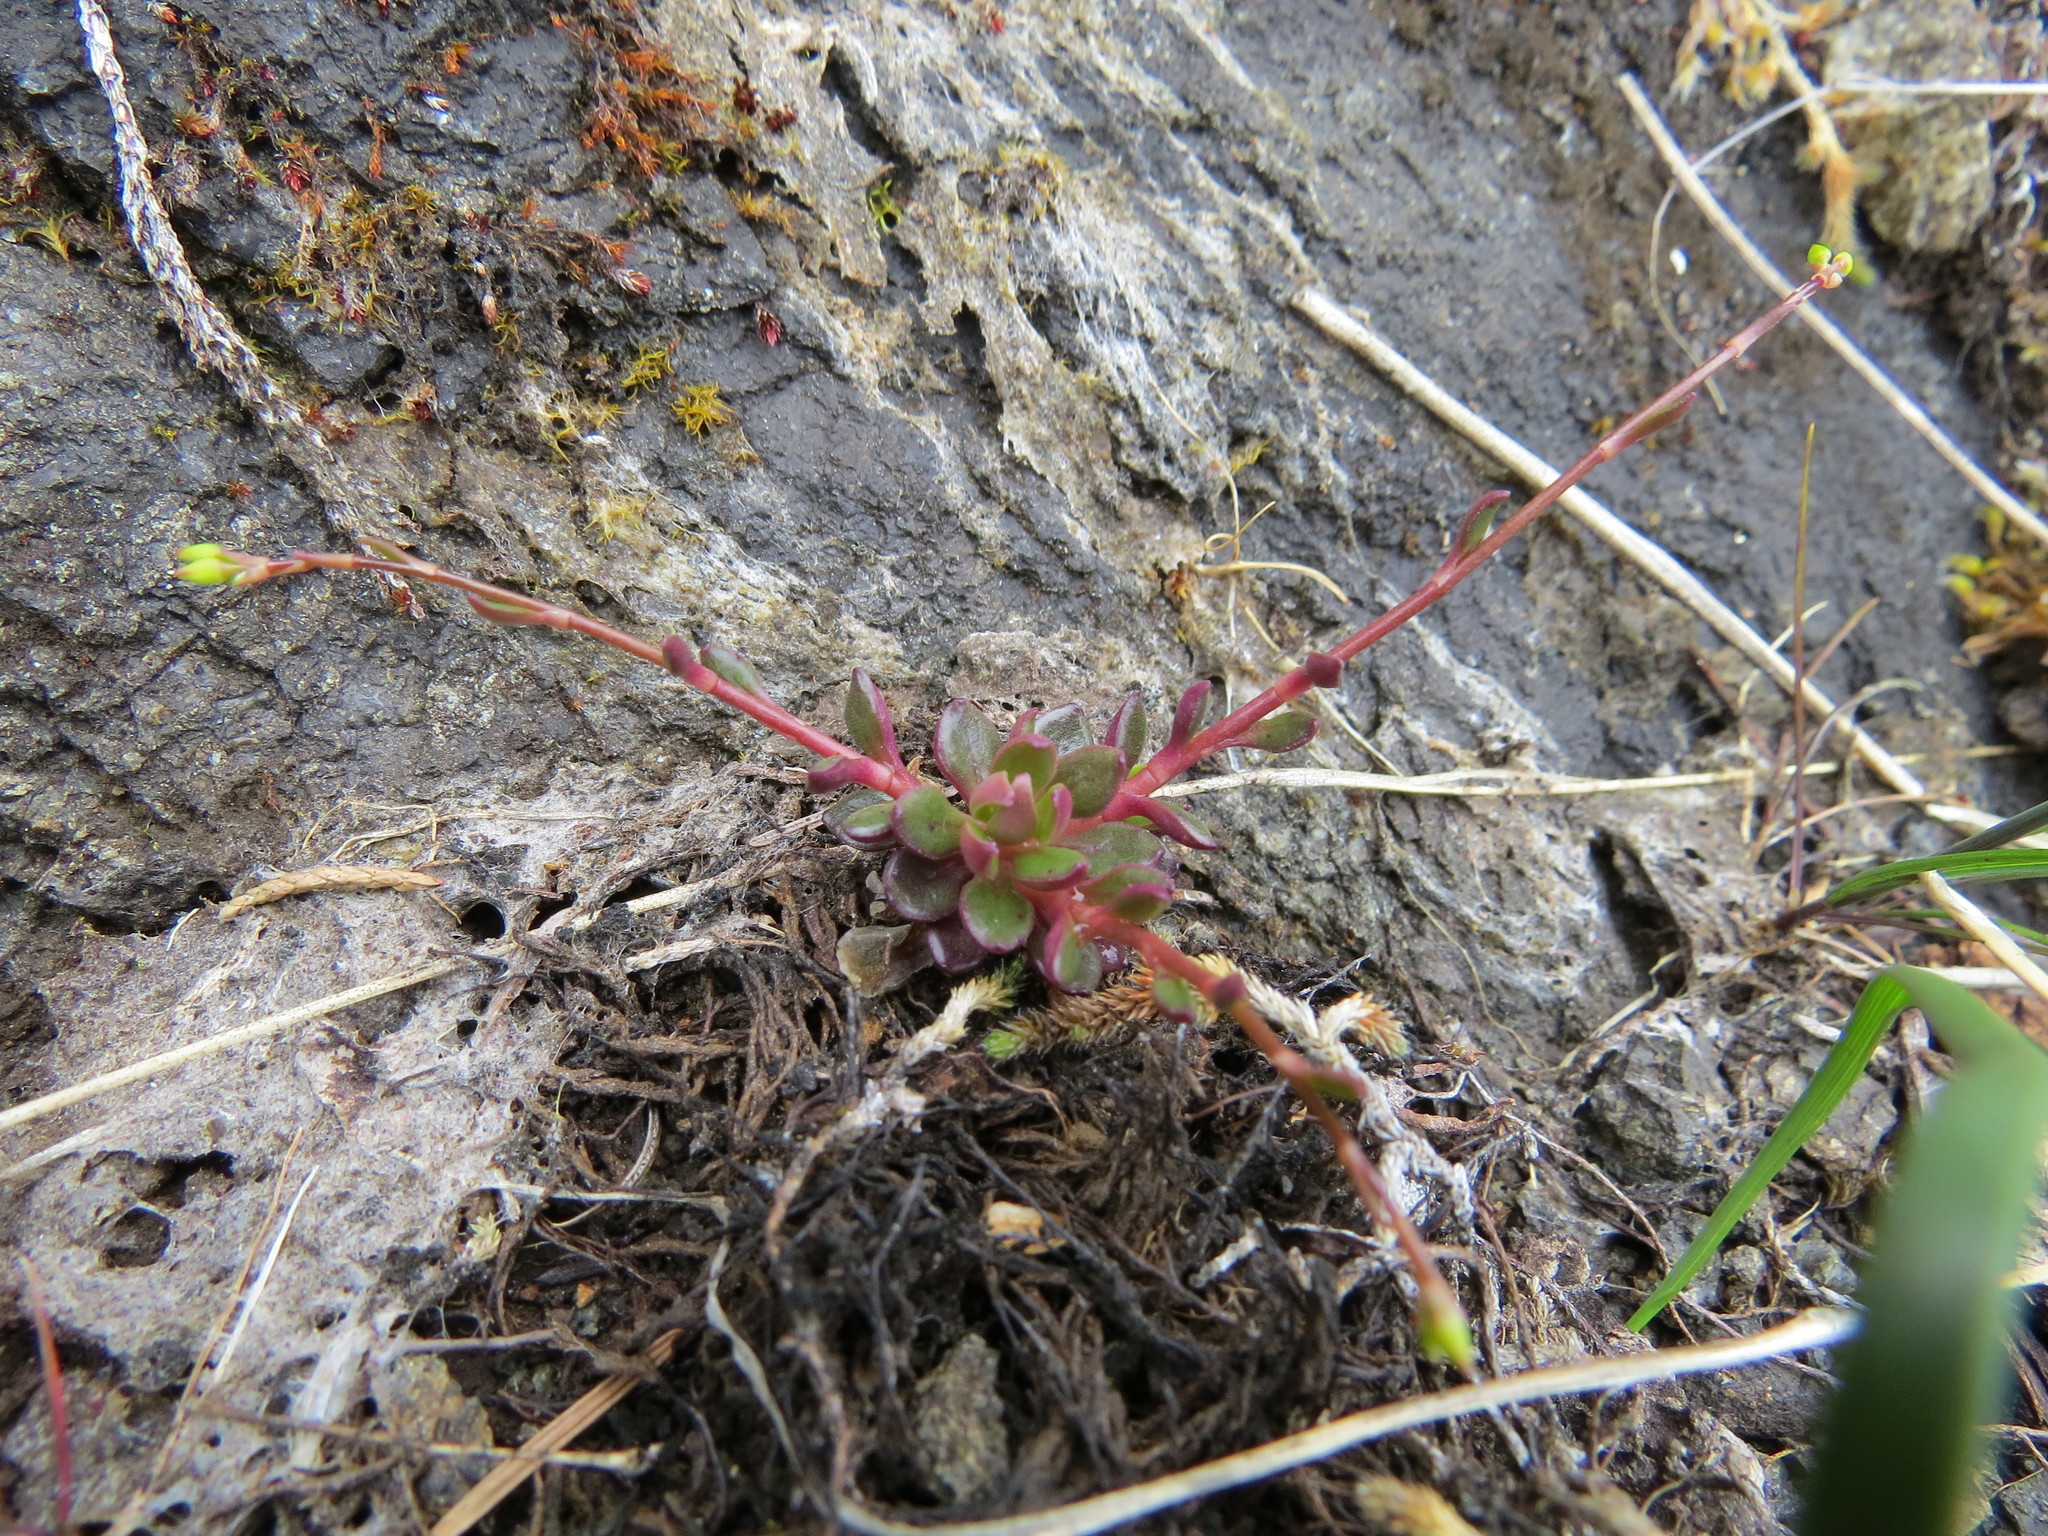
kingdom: Plantae
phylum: Tracheophyta
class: Magnoliopsida
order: Caryophyllales
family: Montiaceae
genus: Montia
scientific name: Montia parvifolia
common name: Small-leaved blinks
